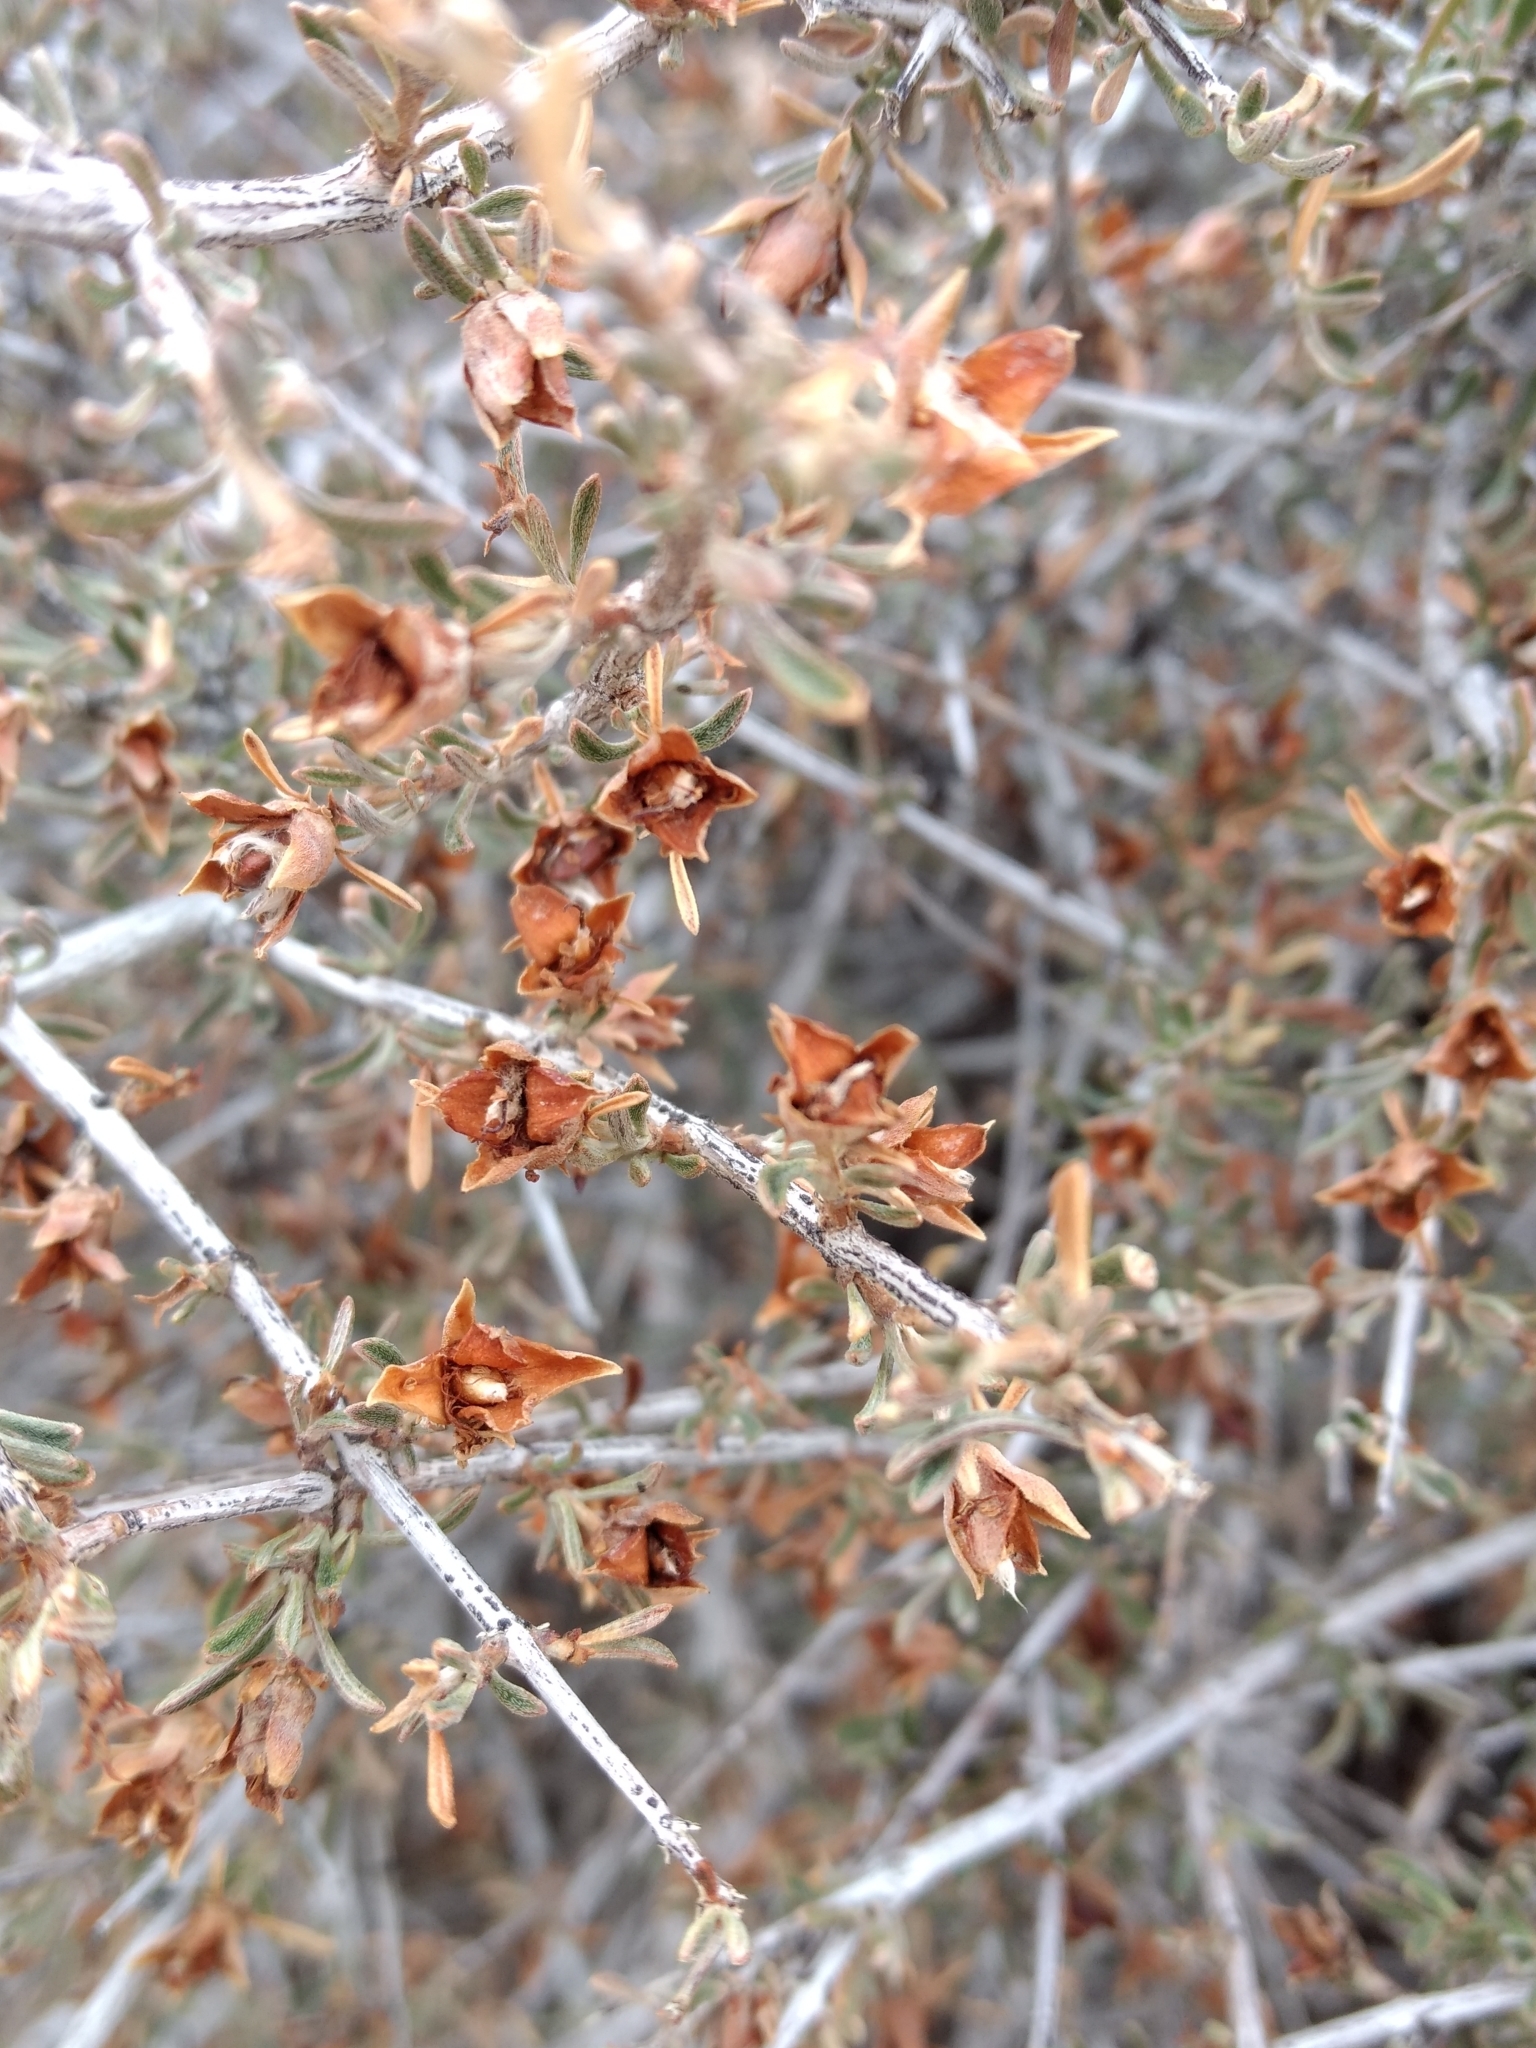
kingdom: Plantae
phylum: Tracheophyta
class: Magnoliopsida
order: Rosales
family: Rosaceae
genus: Coleogyne
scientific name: Coleogyne ramosissima
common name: Blackbrush
